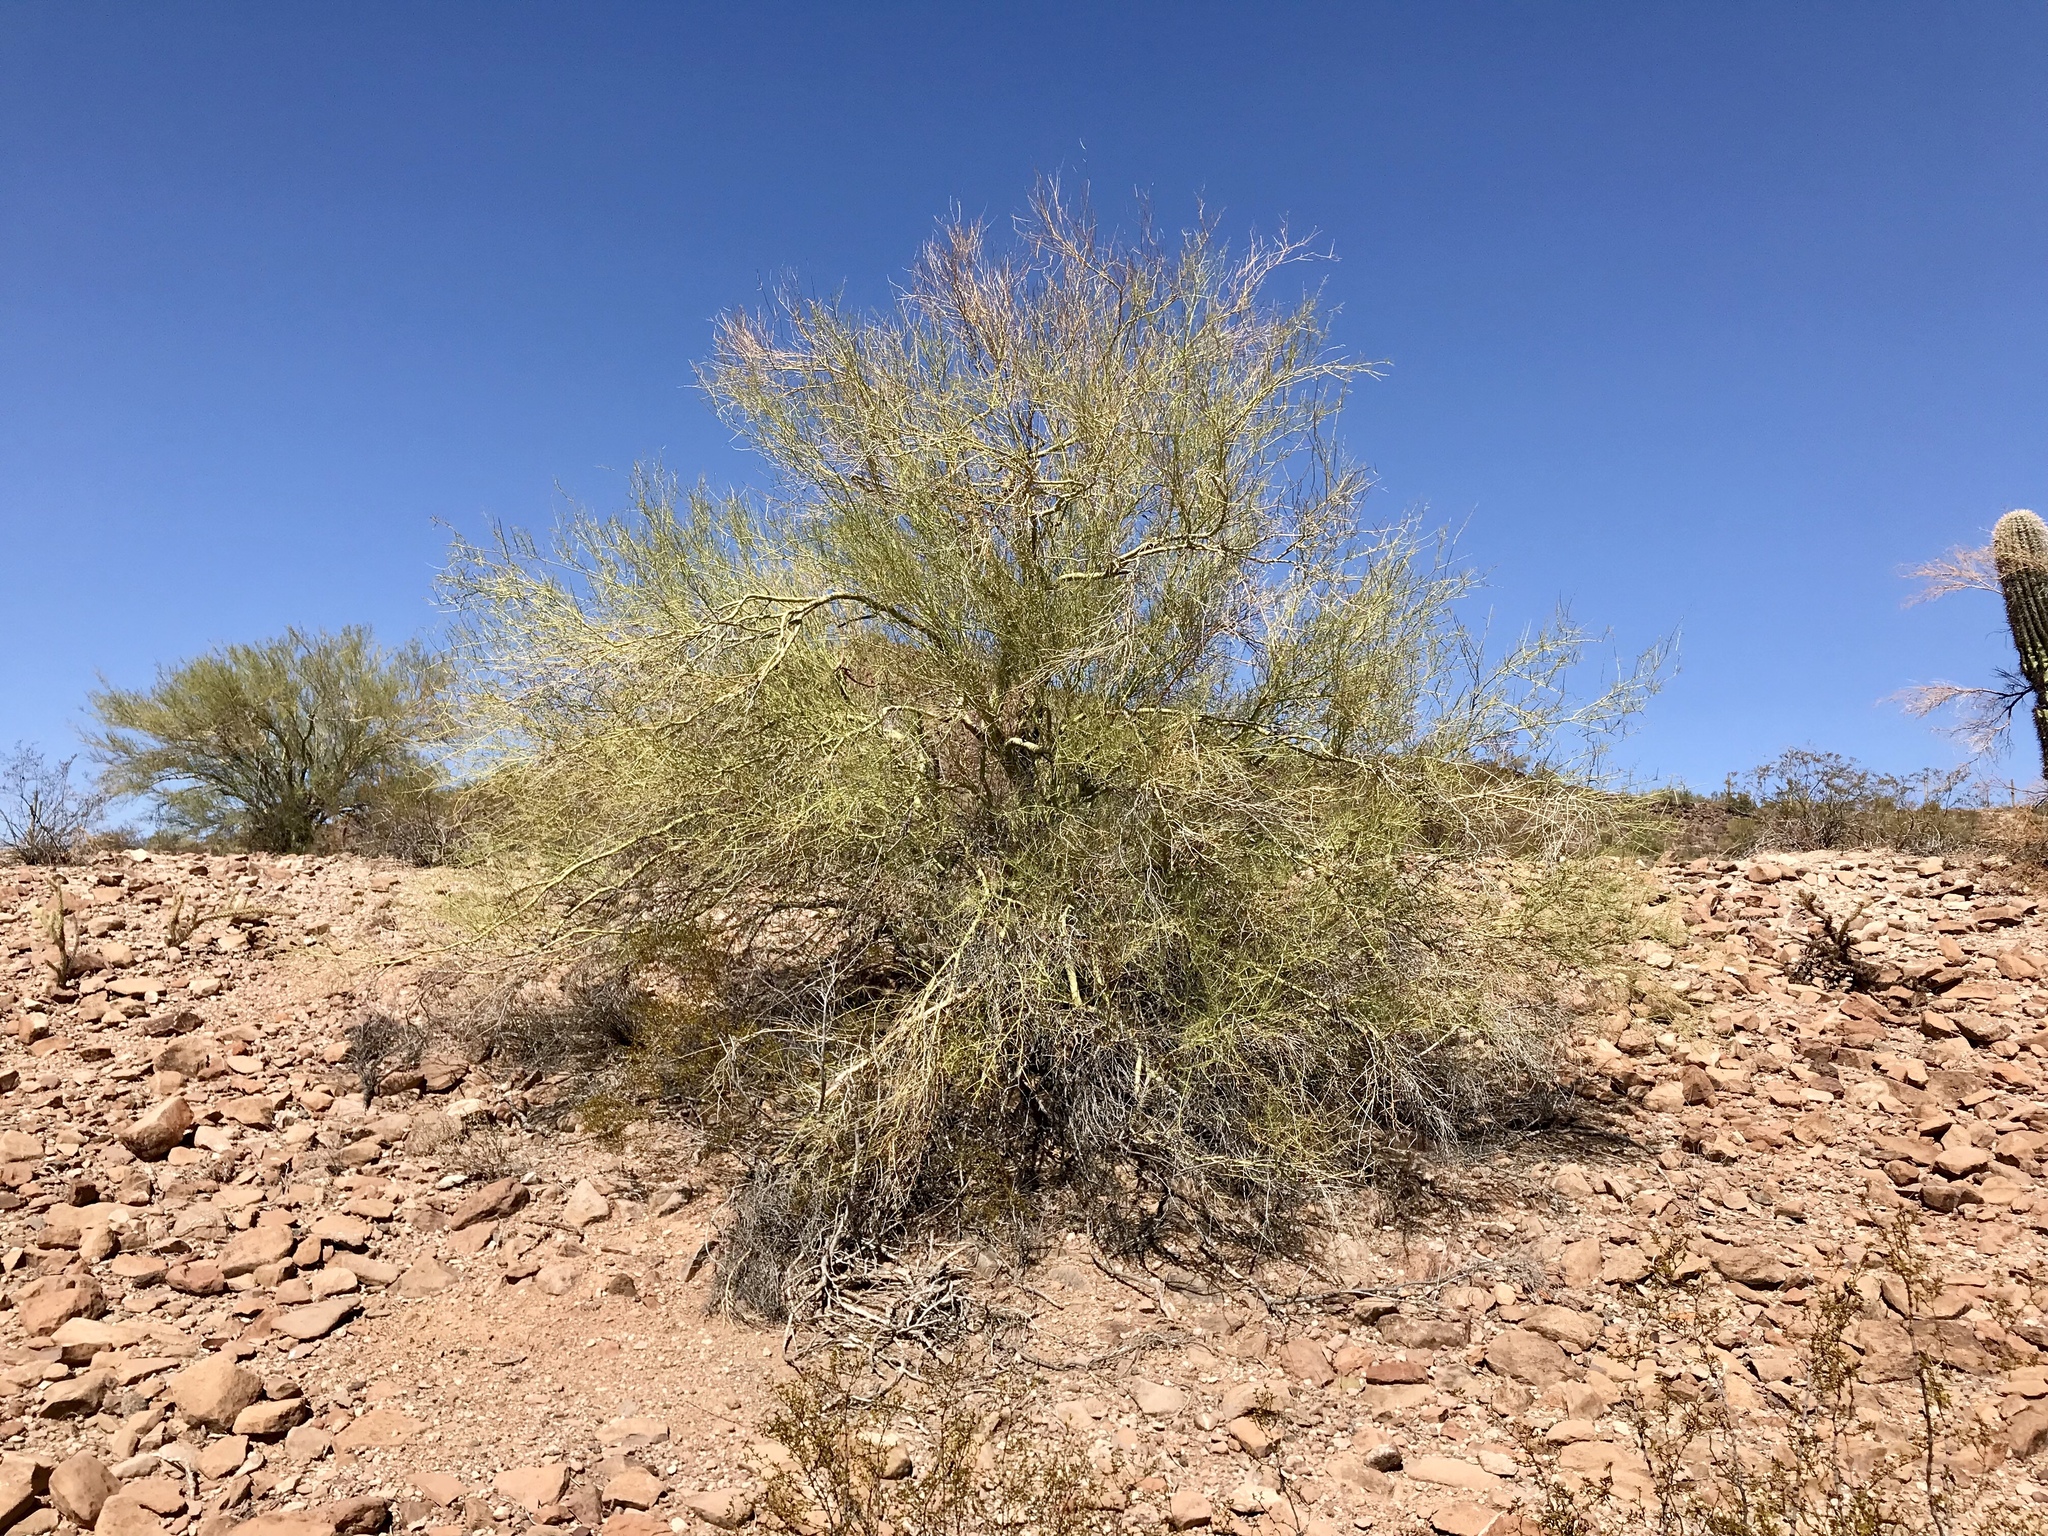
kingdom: Plantae
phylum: Tracheophyta
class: Magnoliopsida
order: Fabales
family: Fabaceae
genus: Parkinsonia
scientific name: Parkinsonia florida
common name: Blue paloverde
